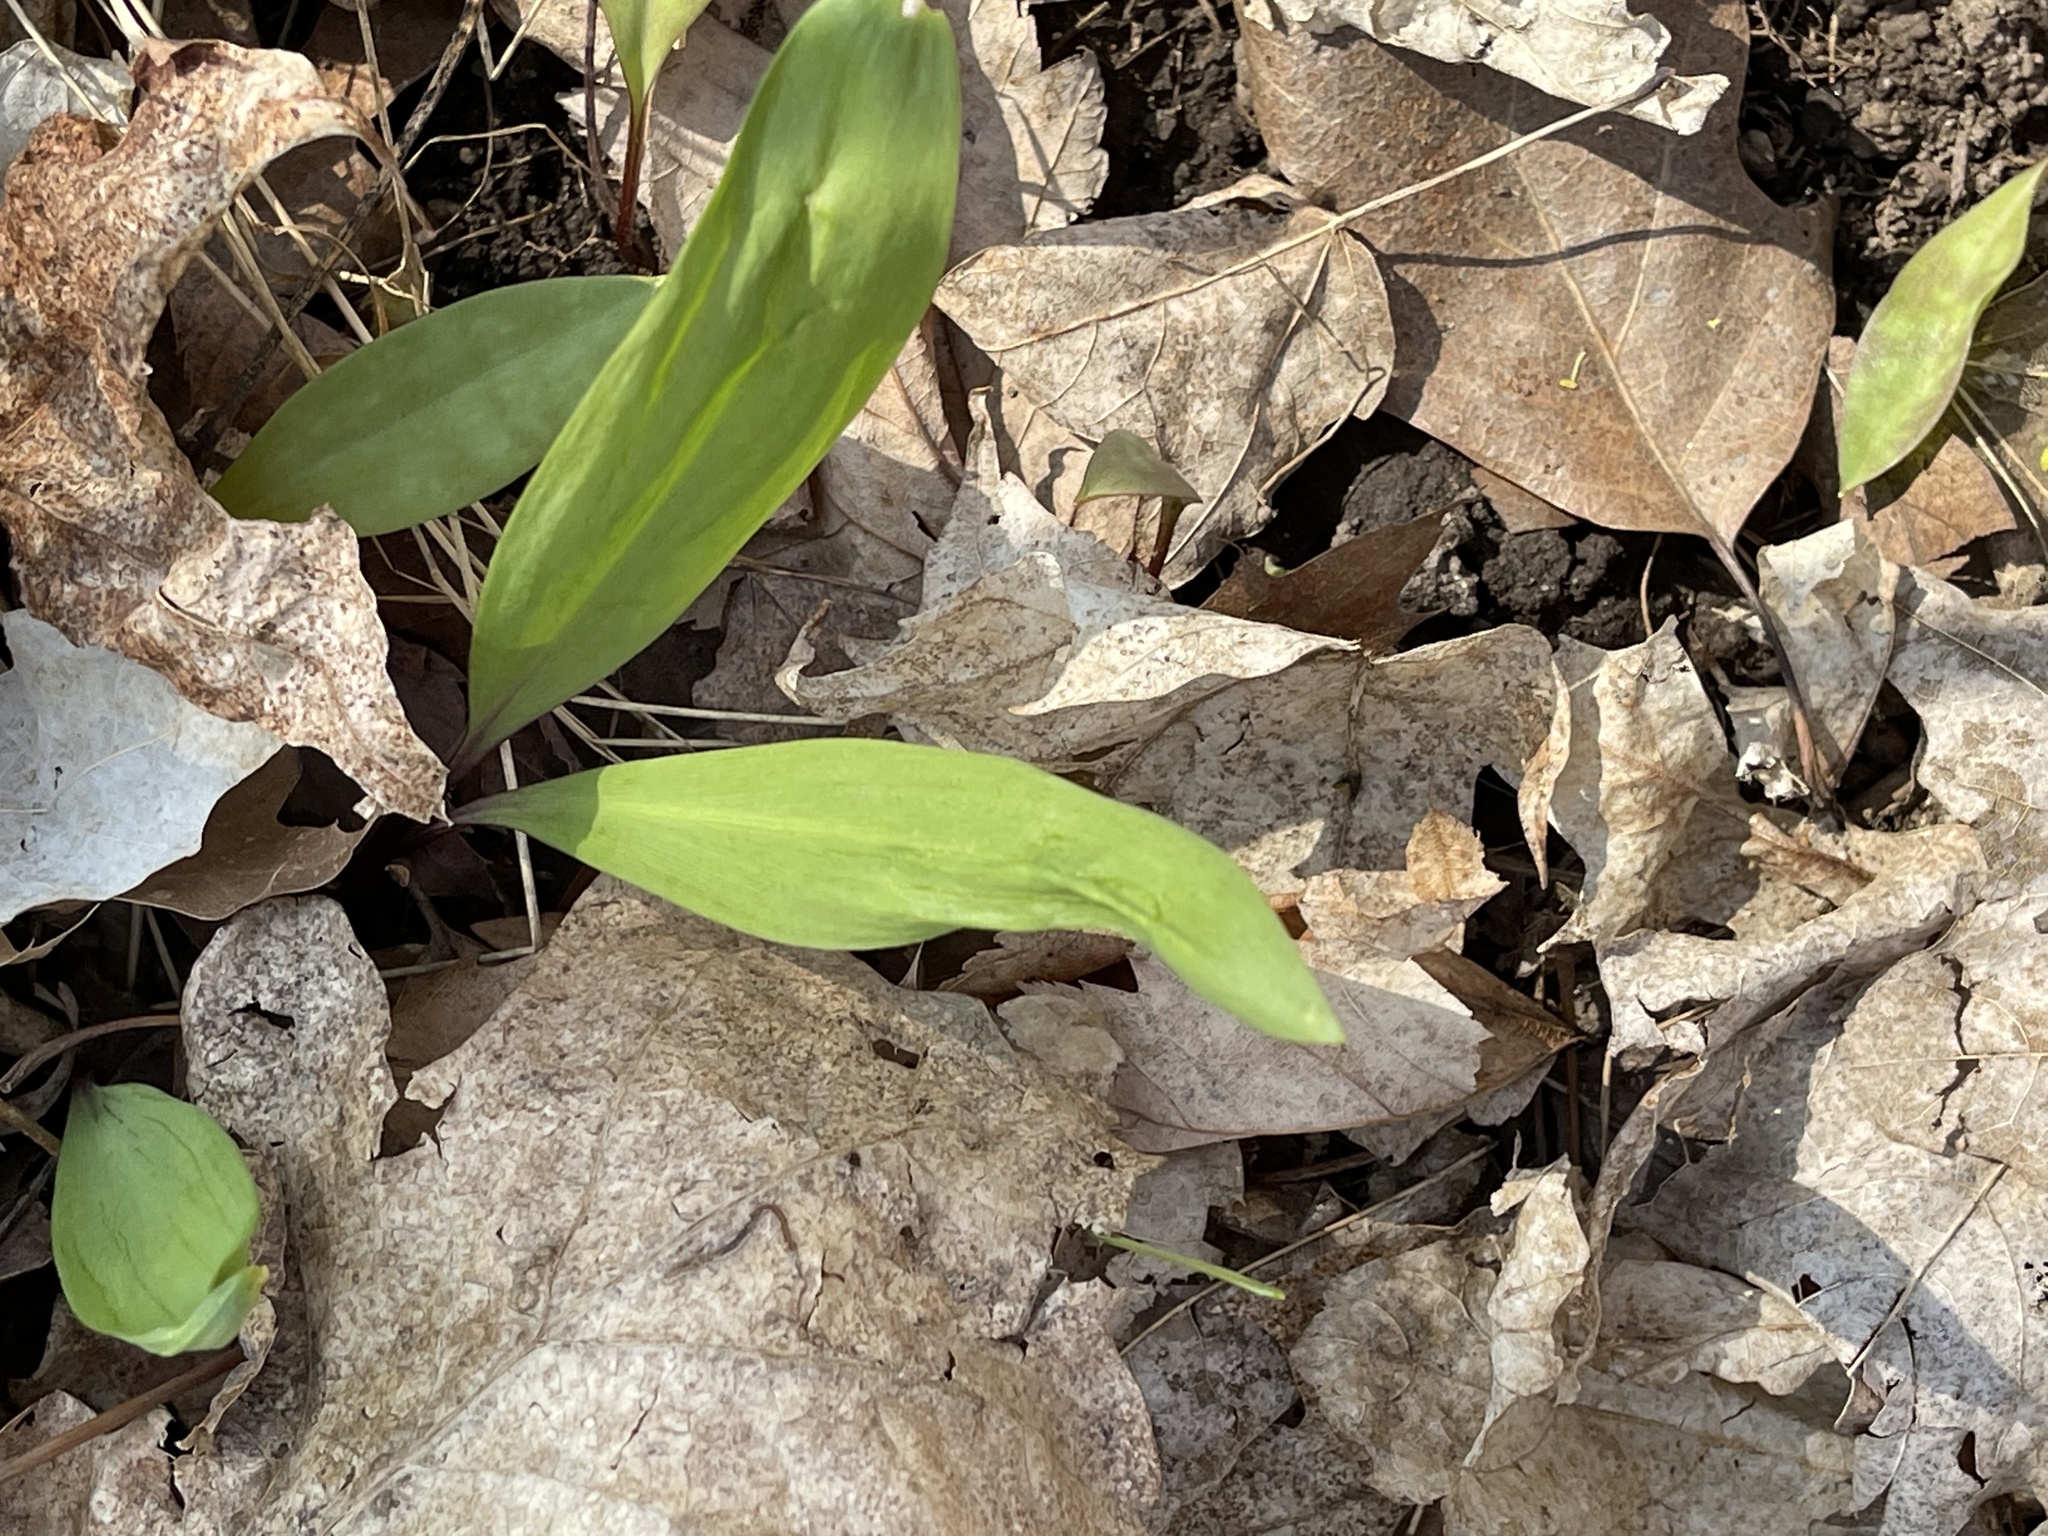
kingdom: Plantae
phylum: Tracheophyta
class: Liliopsida
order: Asparagales
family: Amaryllidaceae
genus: Allium
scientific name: Allium tricoccum
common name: Ramp
